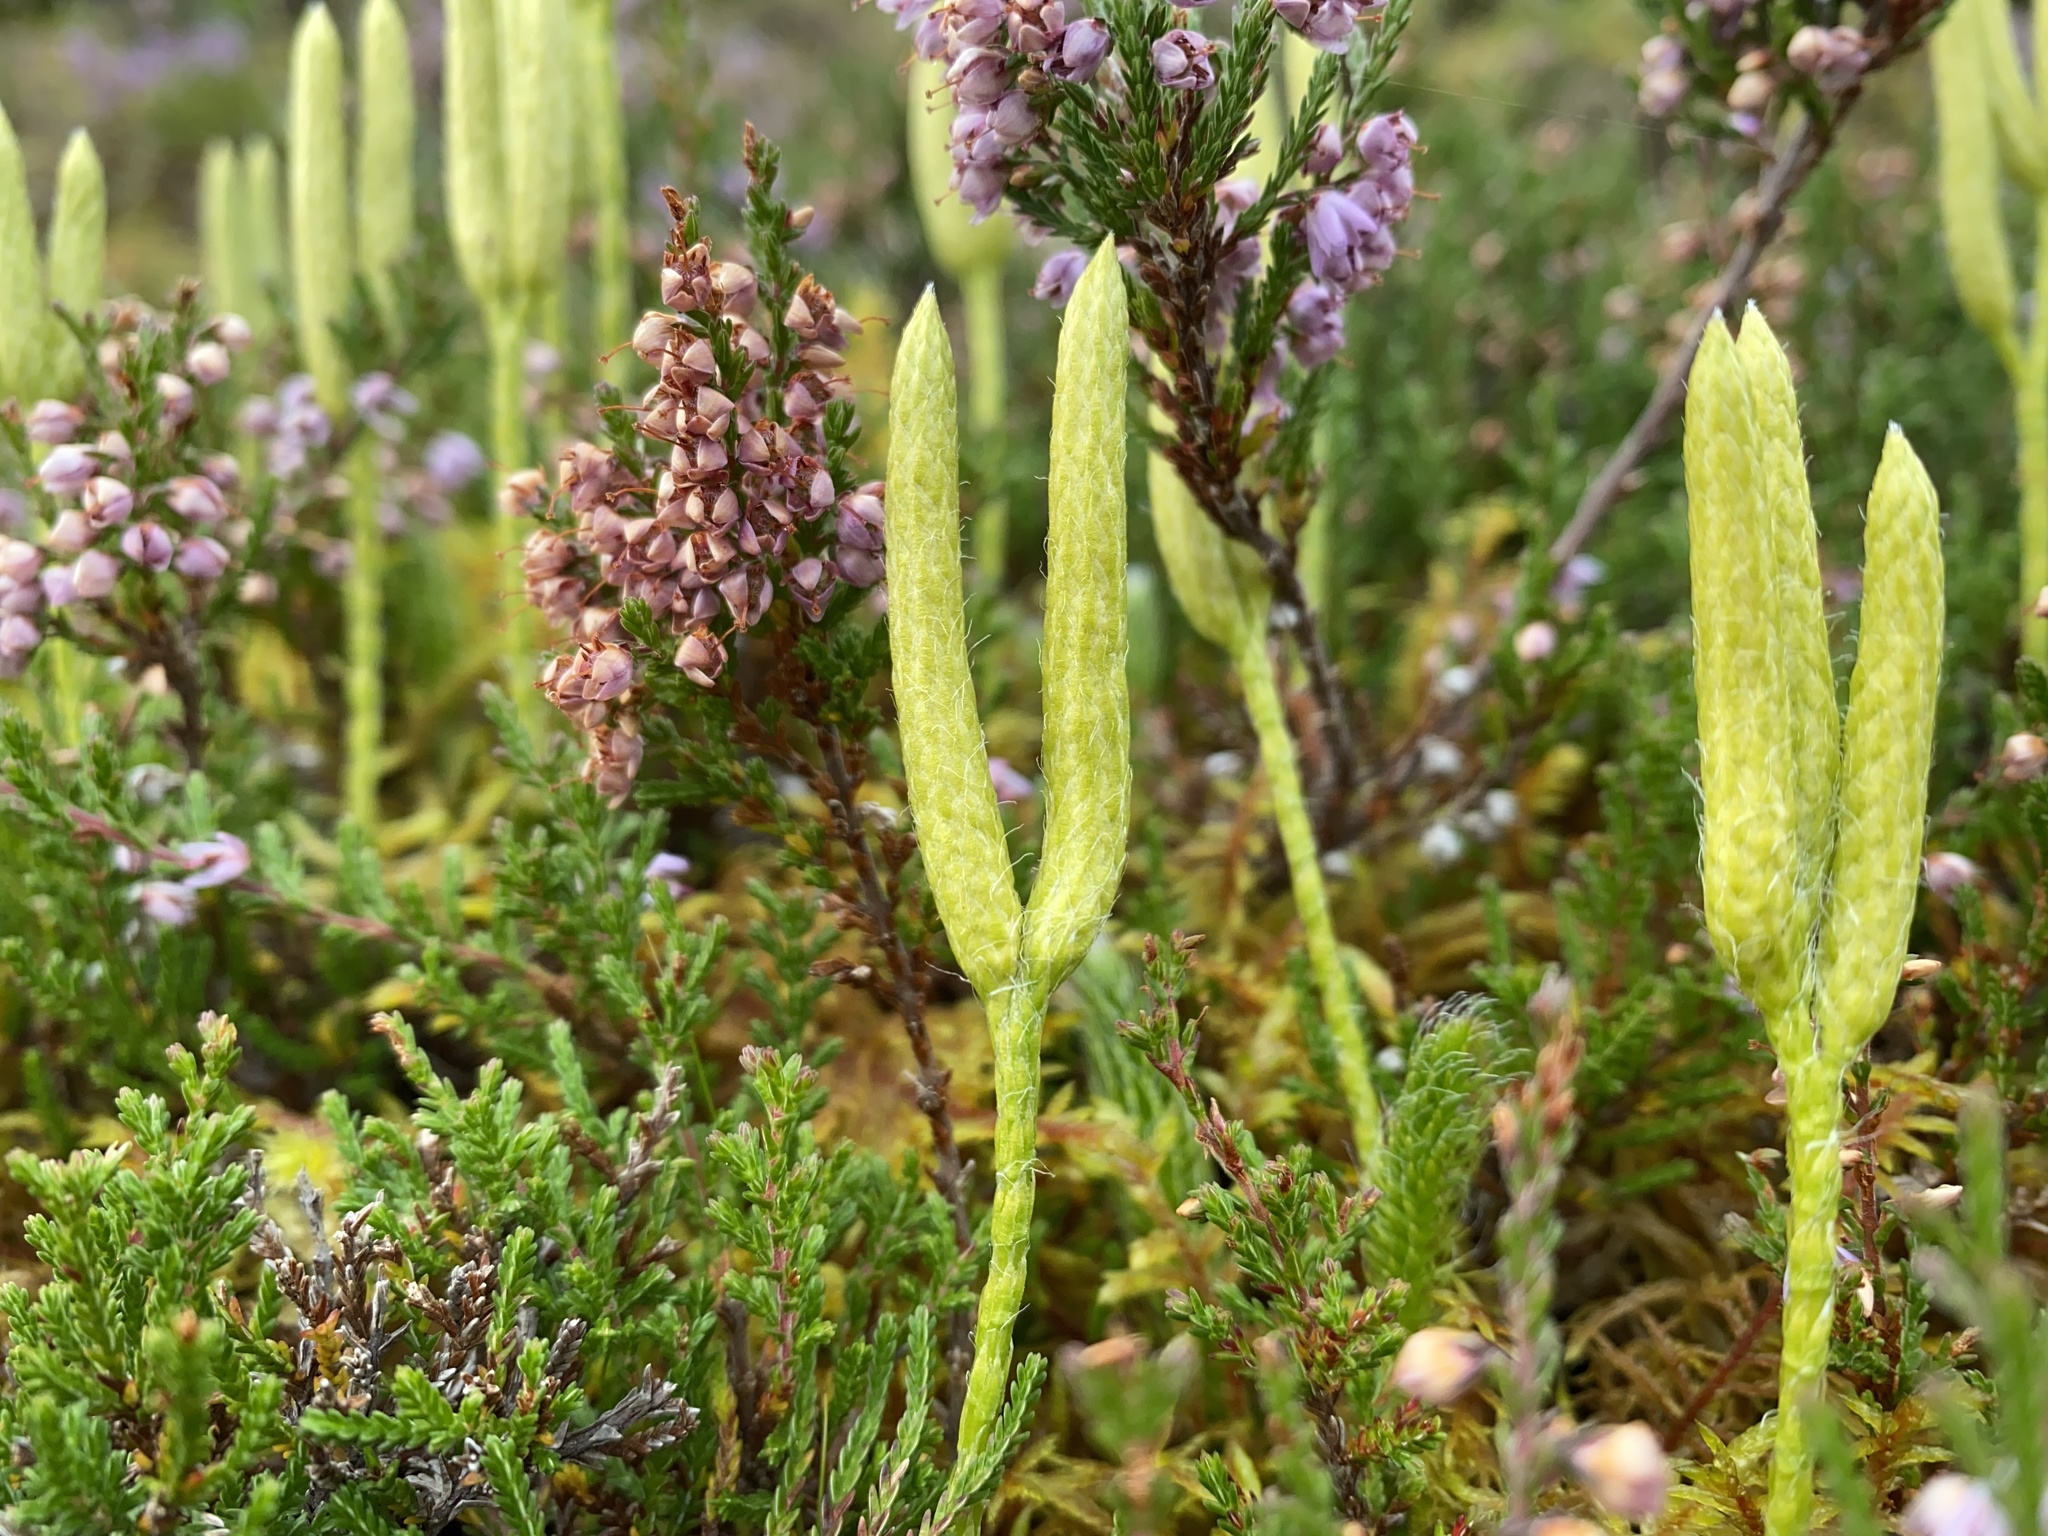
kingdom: Plantae
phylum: Tracheophyta
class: Lycopodiopsida
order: Lycopodiales
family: Lycopodiaceae
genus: Lycopodium
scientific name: Lycopodium clavatum
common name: Stag's-horn clubmoss
